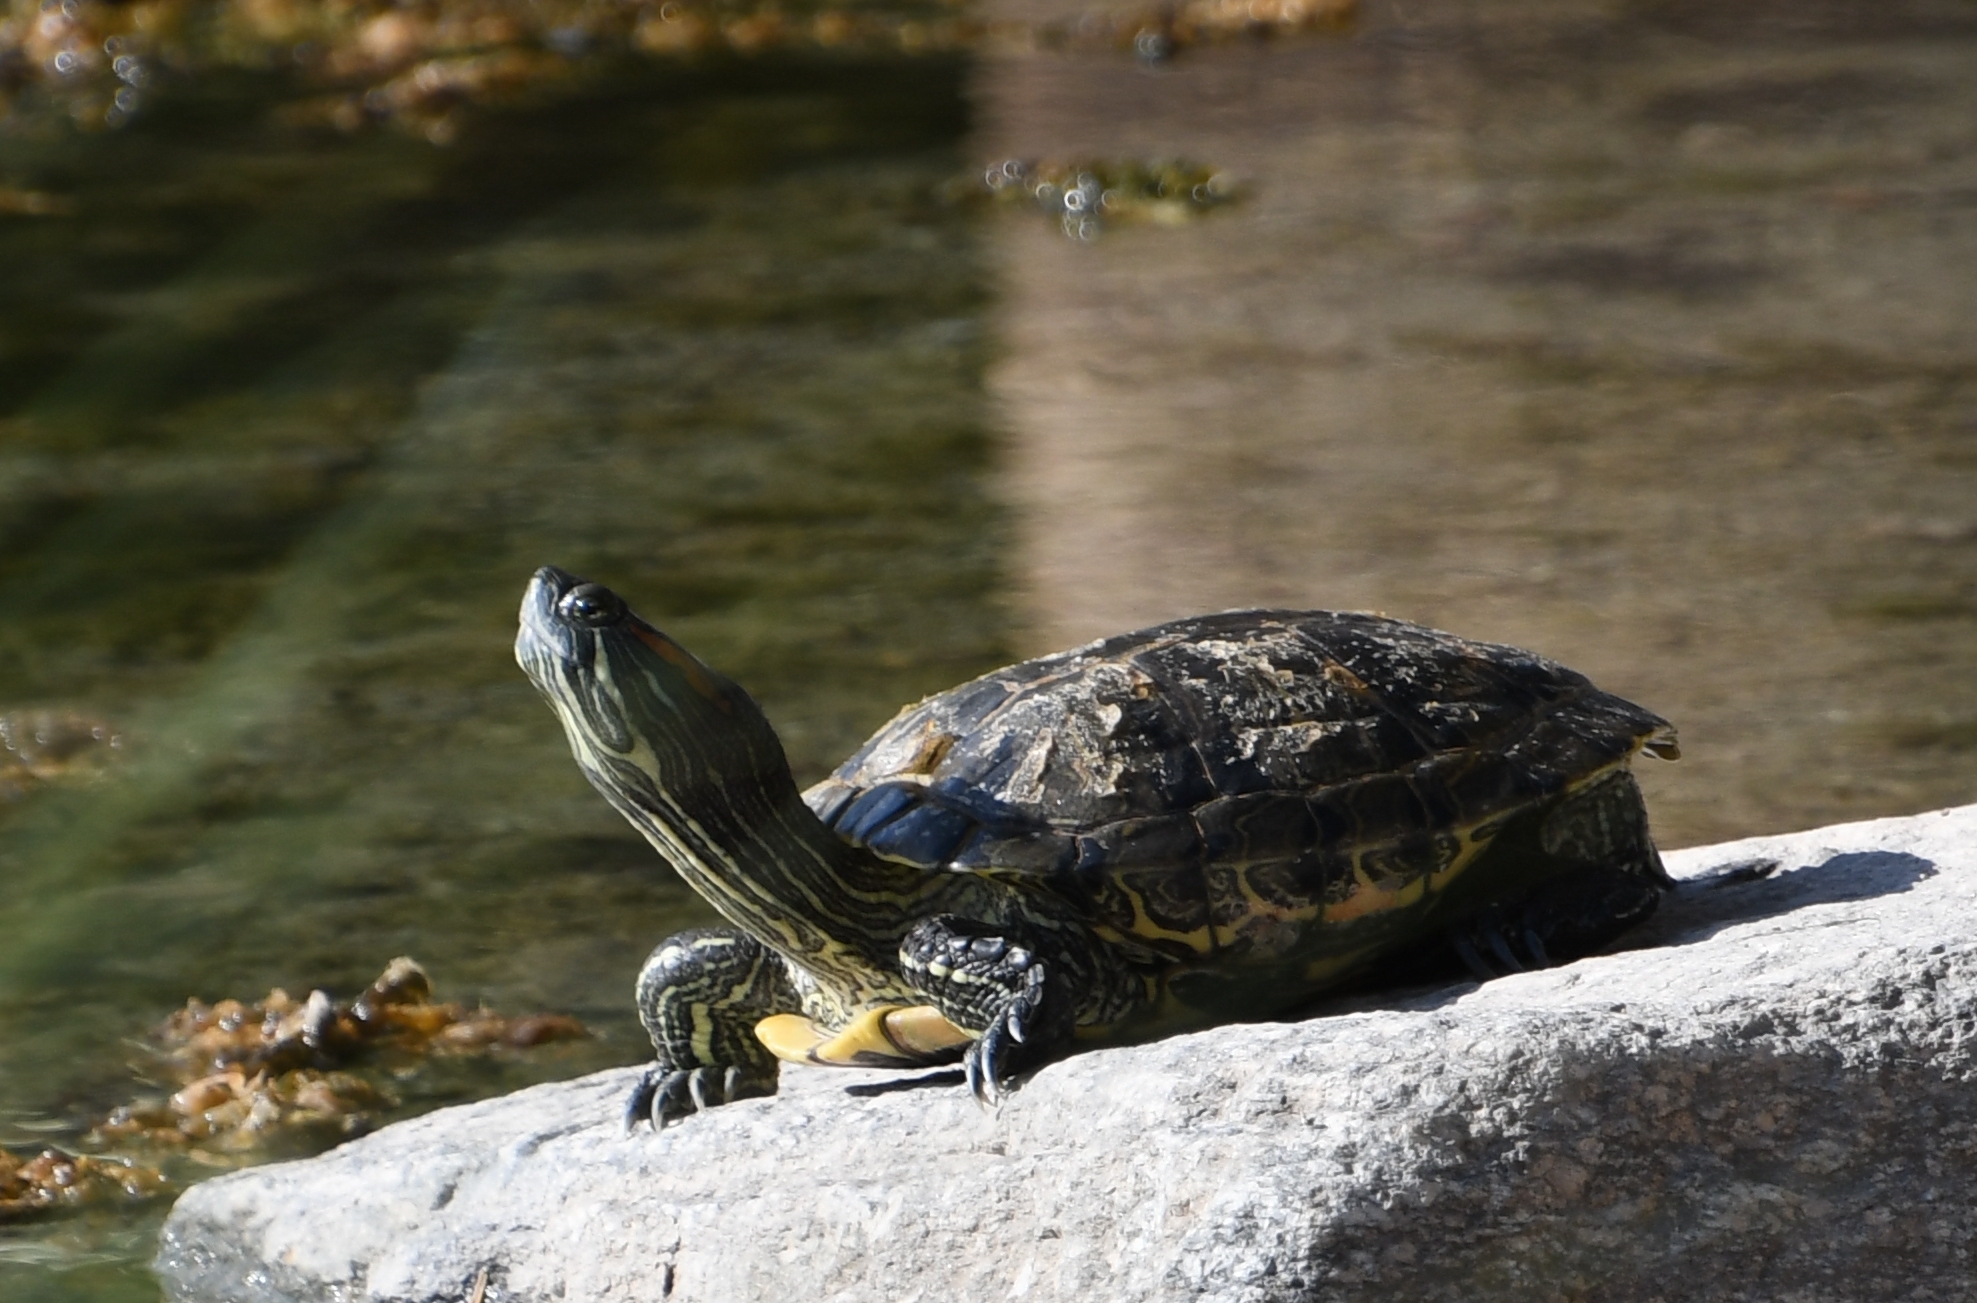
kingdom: Animalia
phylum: Chordata
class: Testudines
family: Emydidae
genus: Trachemys
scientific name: Trachemys scripta
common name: Slider
